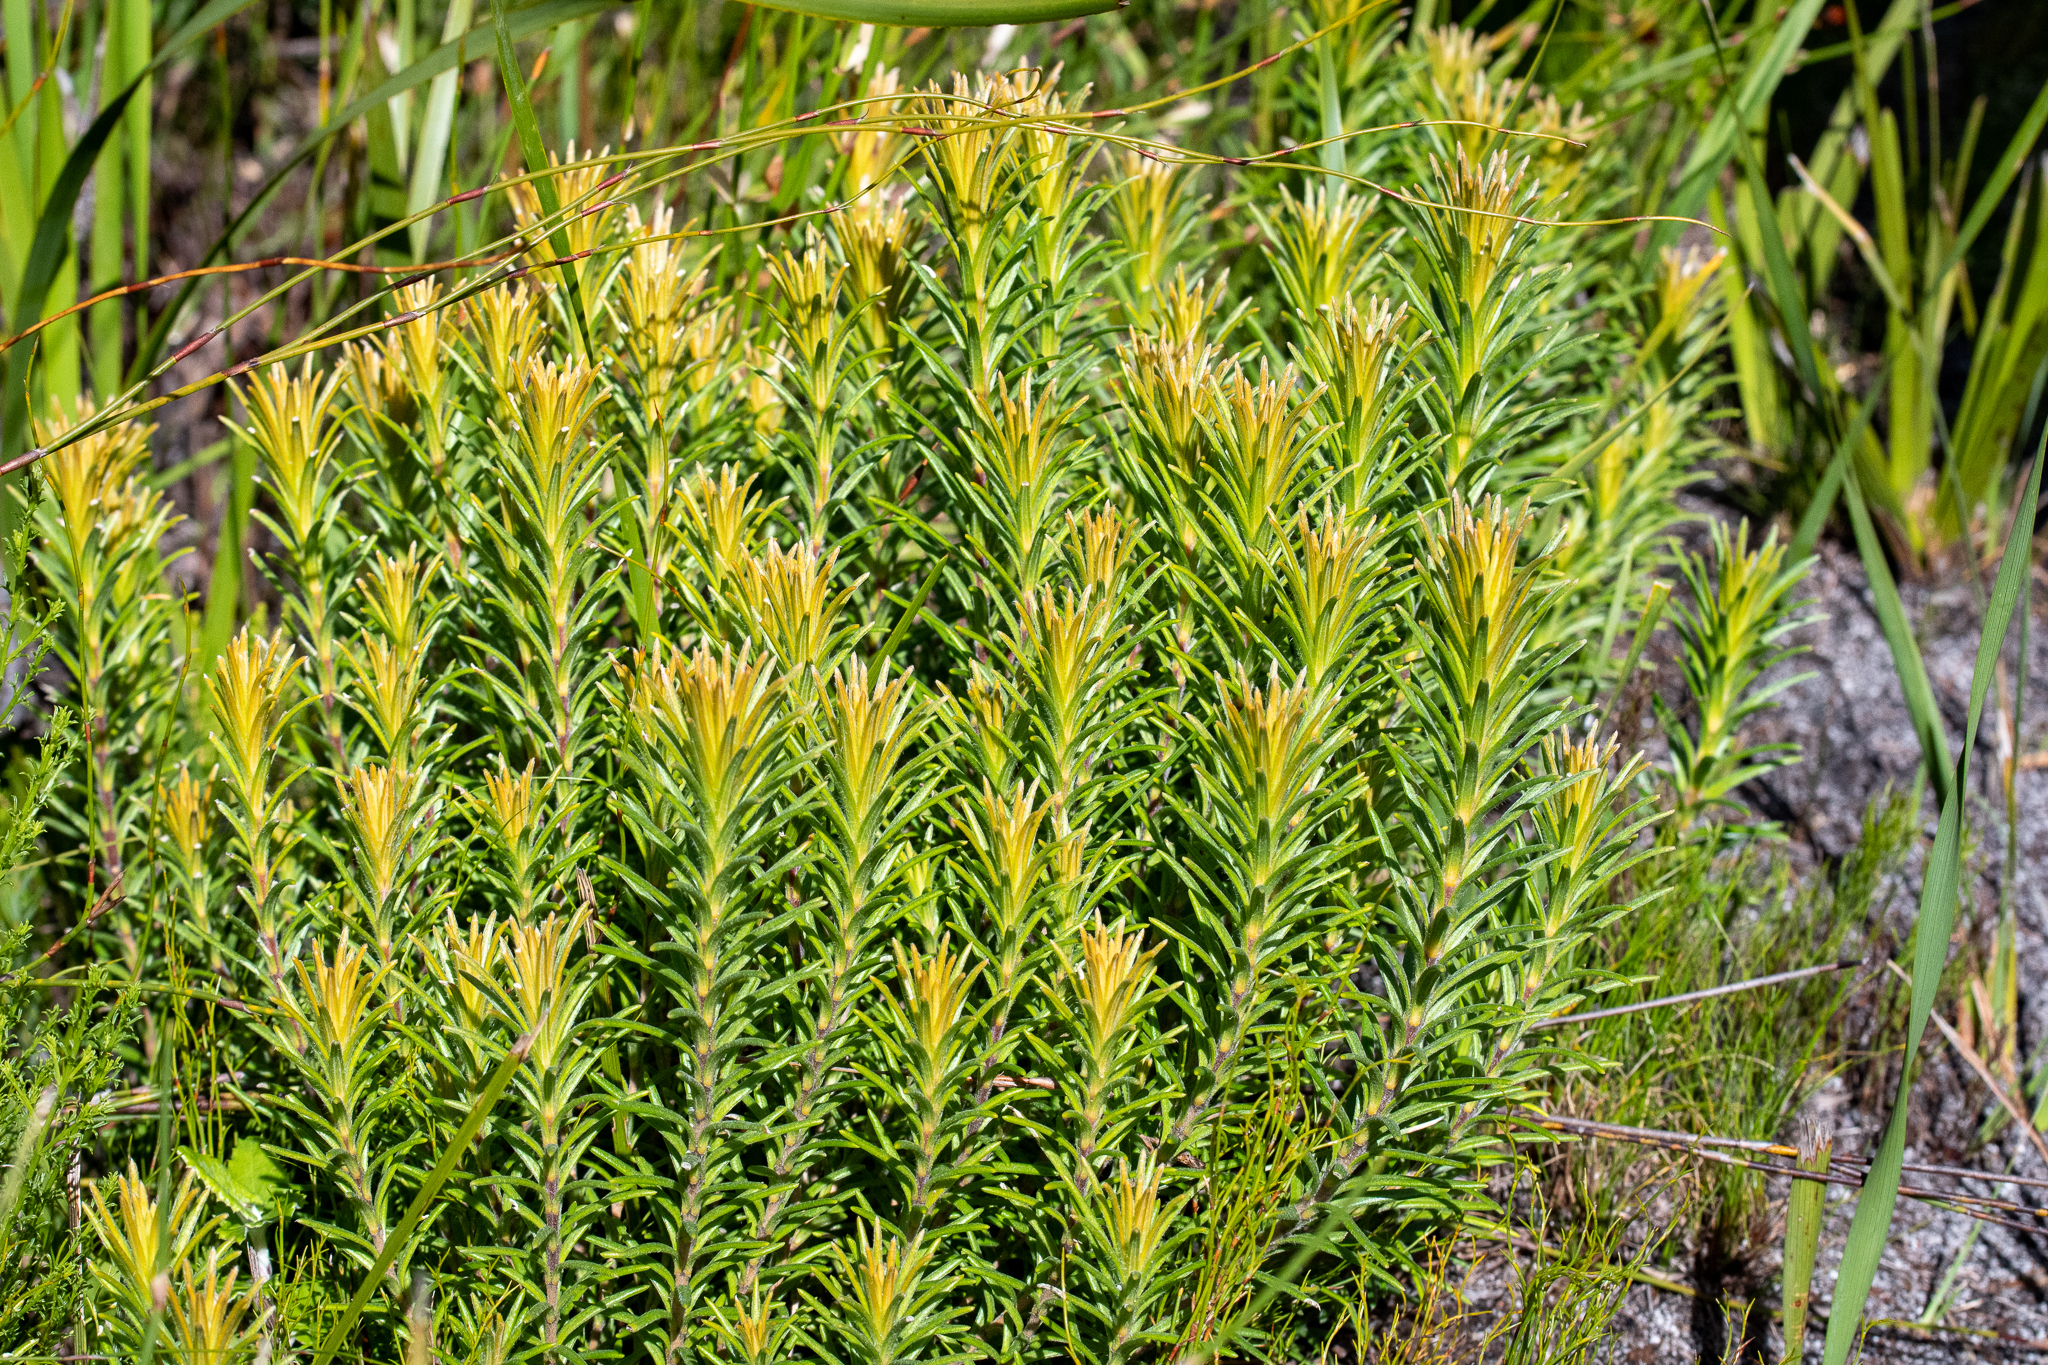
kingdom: Plantae
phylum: Tracheophyta
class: Magnoliopsida
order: Lamiales
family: Stilbaceae
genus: Retzia
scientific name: Retzia capensis
